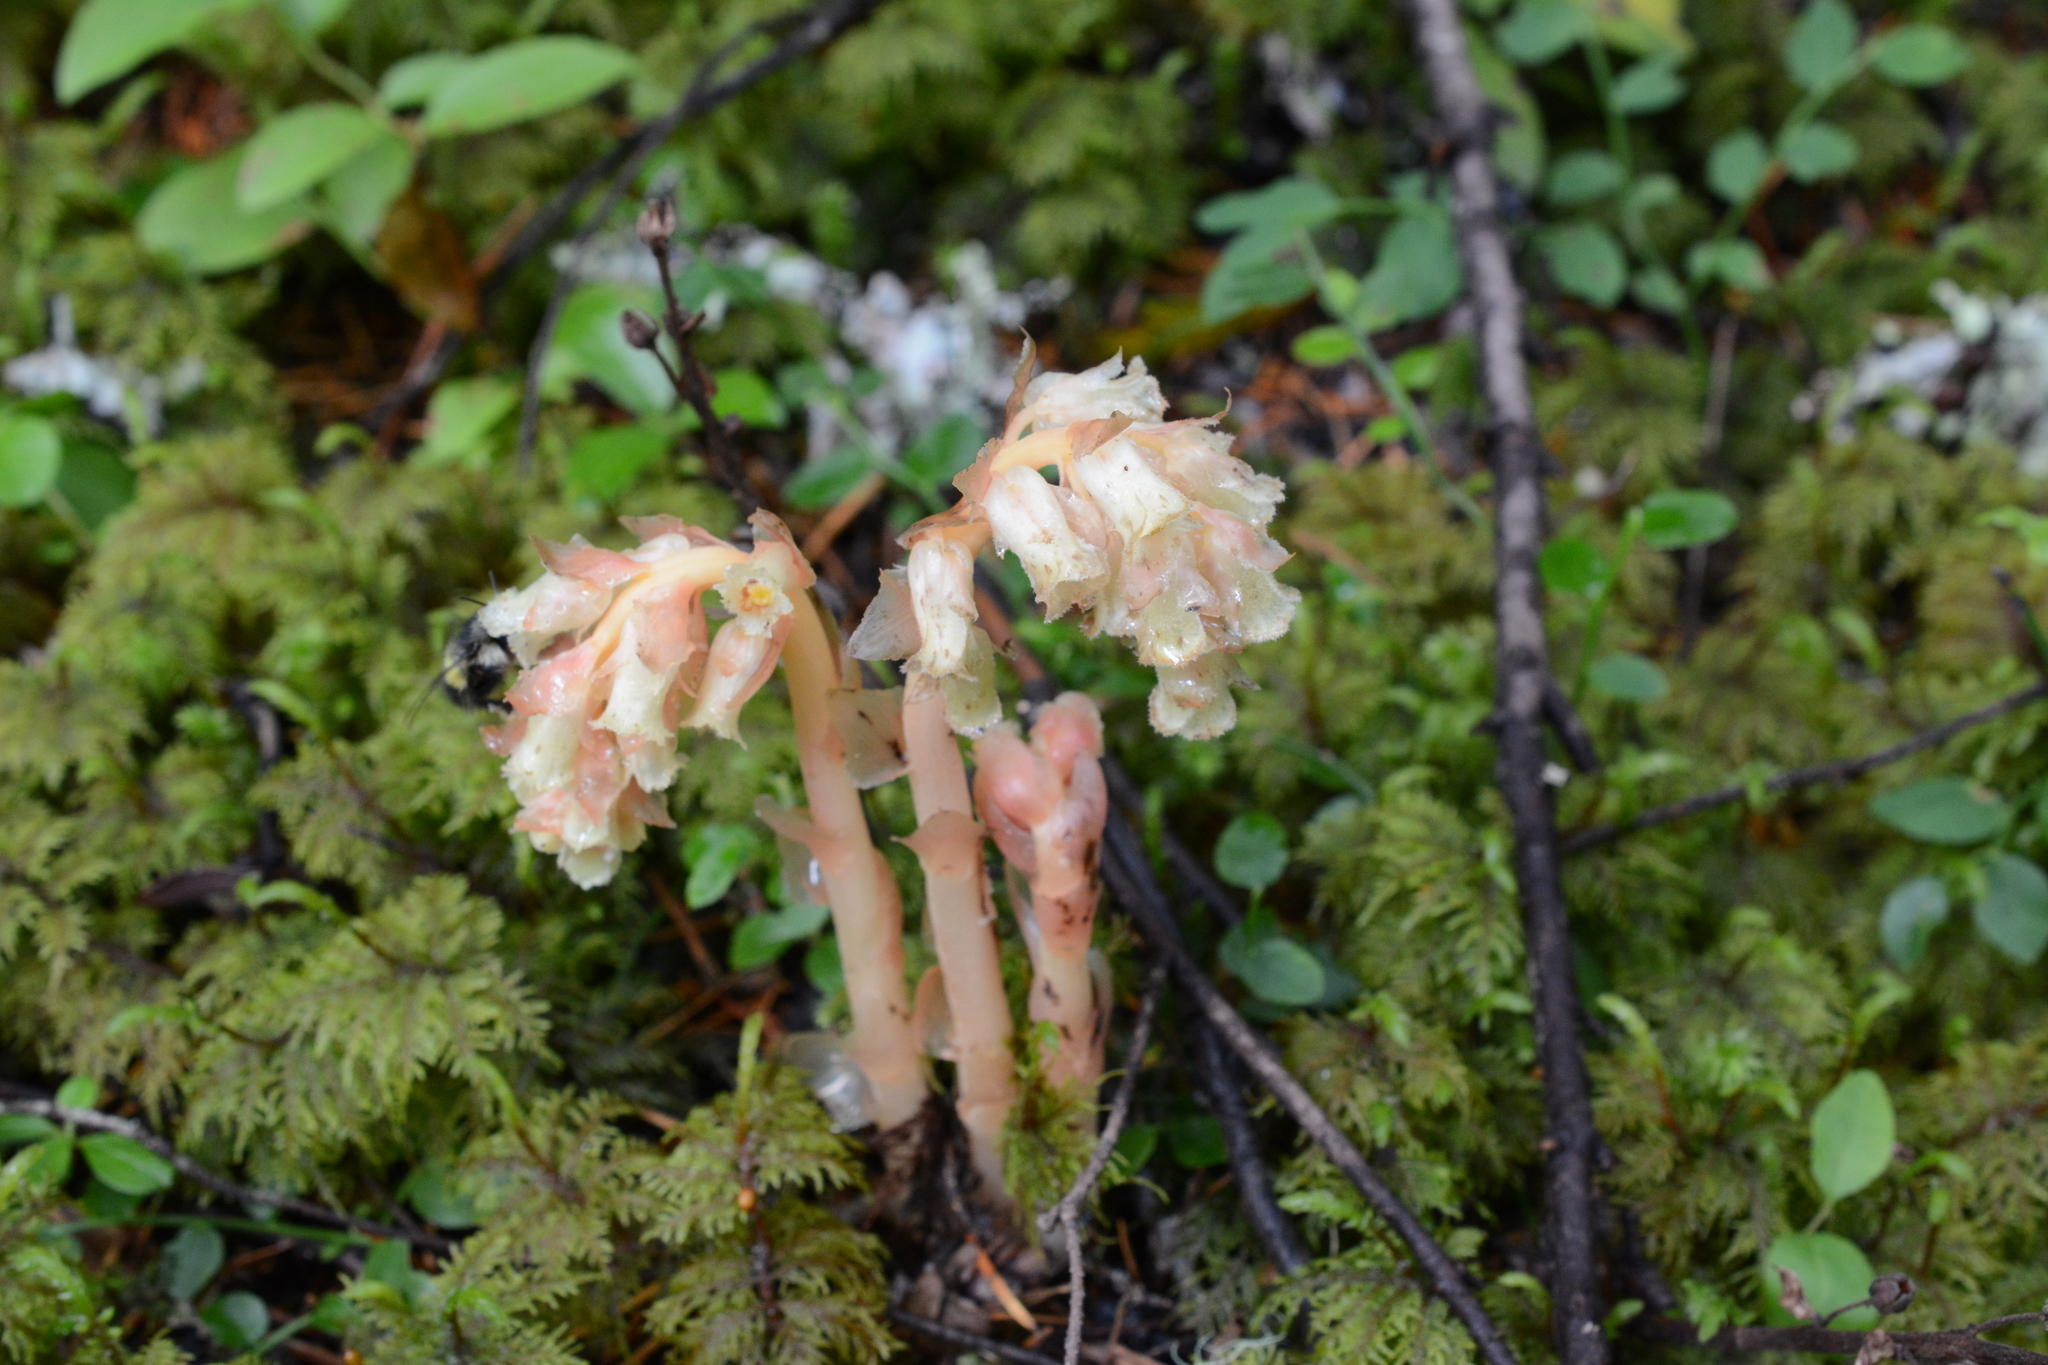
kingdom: Plantae
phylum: Tracheophyta
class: Magnoliopsida
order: Ericales
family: Ericaceae
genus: Hypopitys
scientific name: Hypopitys monotropa
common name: Yellow bird's-nest
